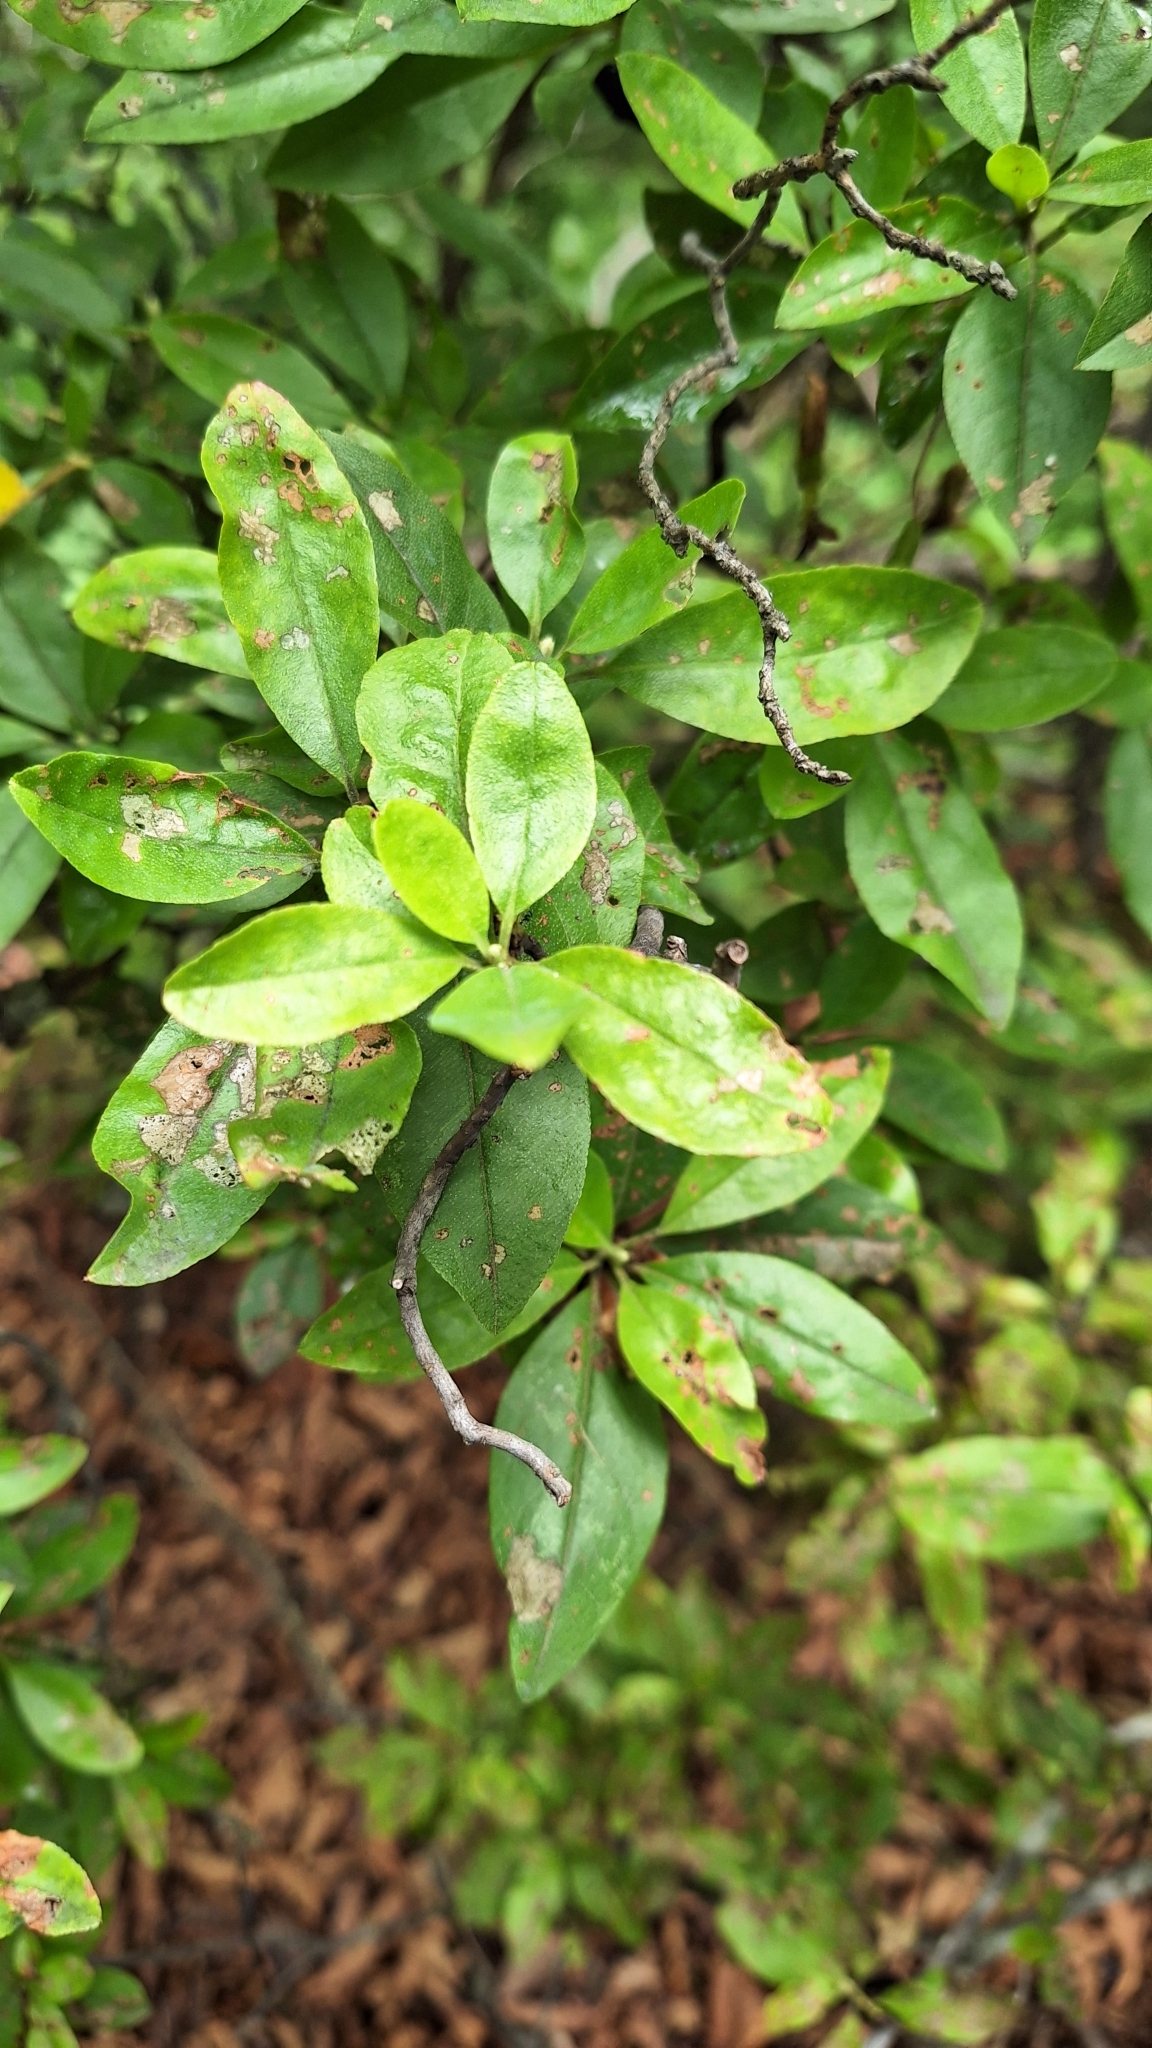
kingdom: Plantae
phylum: Tracheophyta
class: Magnoliopsida
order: Ericales
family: Ericaceae
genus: Rhododendron
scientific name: Rhododendron mucronulatum
